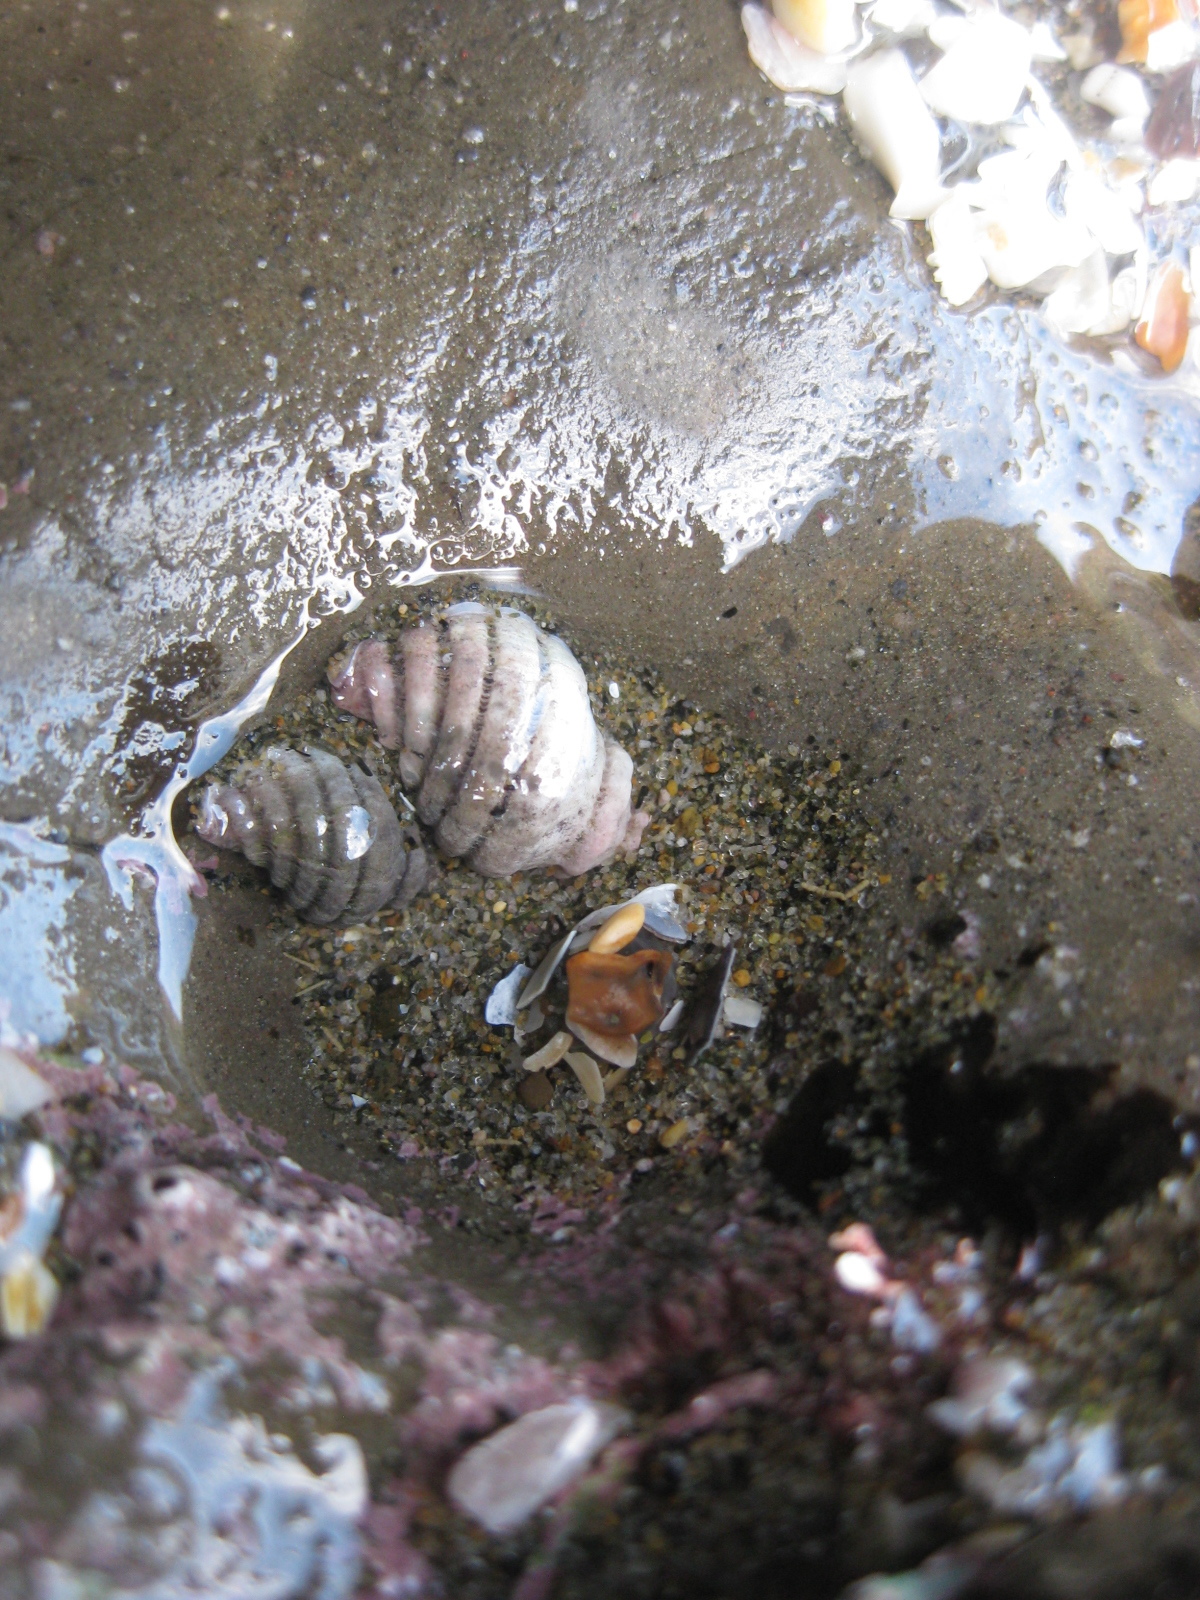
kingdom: Animalia
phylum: Mollusca
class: Gastropoda
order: Neogastropoda
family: Muricidae
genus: Paratrophon
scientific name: Paratrophon cheesemani
